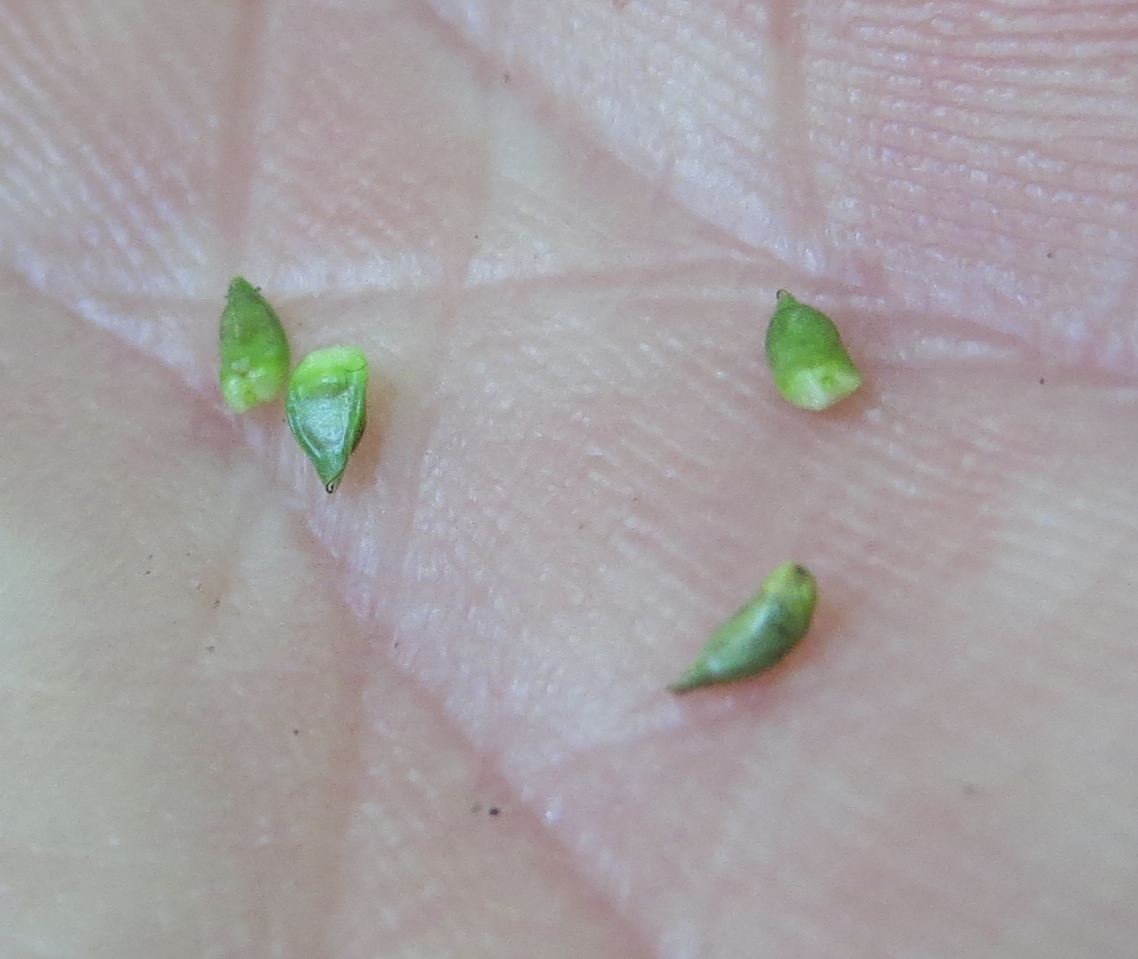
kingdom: Plantae
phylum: Tracheophyta
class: Liliopsida
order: Poales
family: Cyperaceae
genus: Carex
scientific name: Carex appalachica
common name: Appalachian sedge
